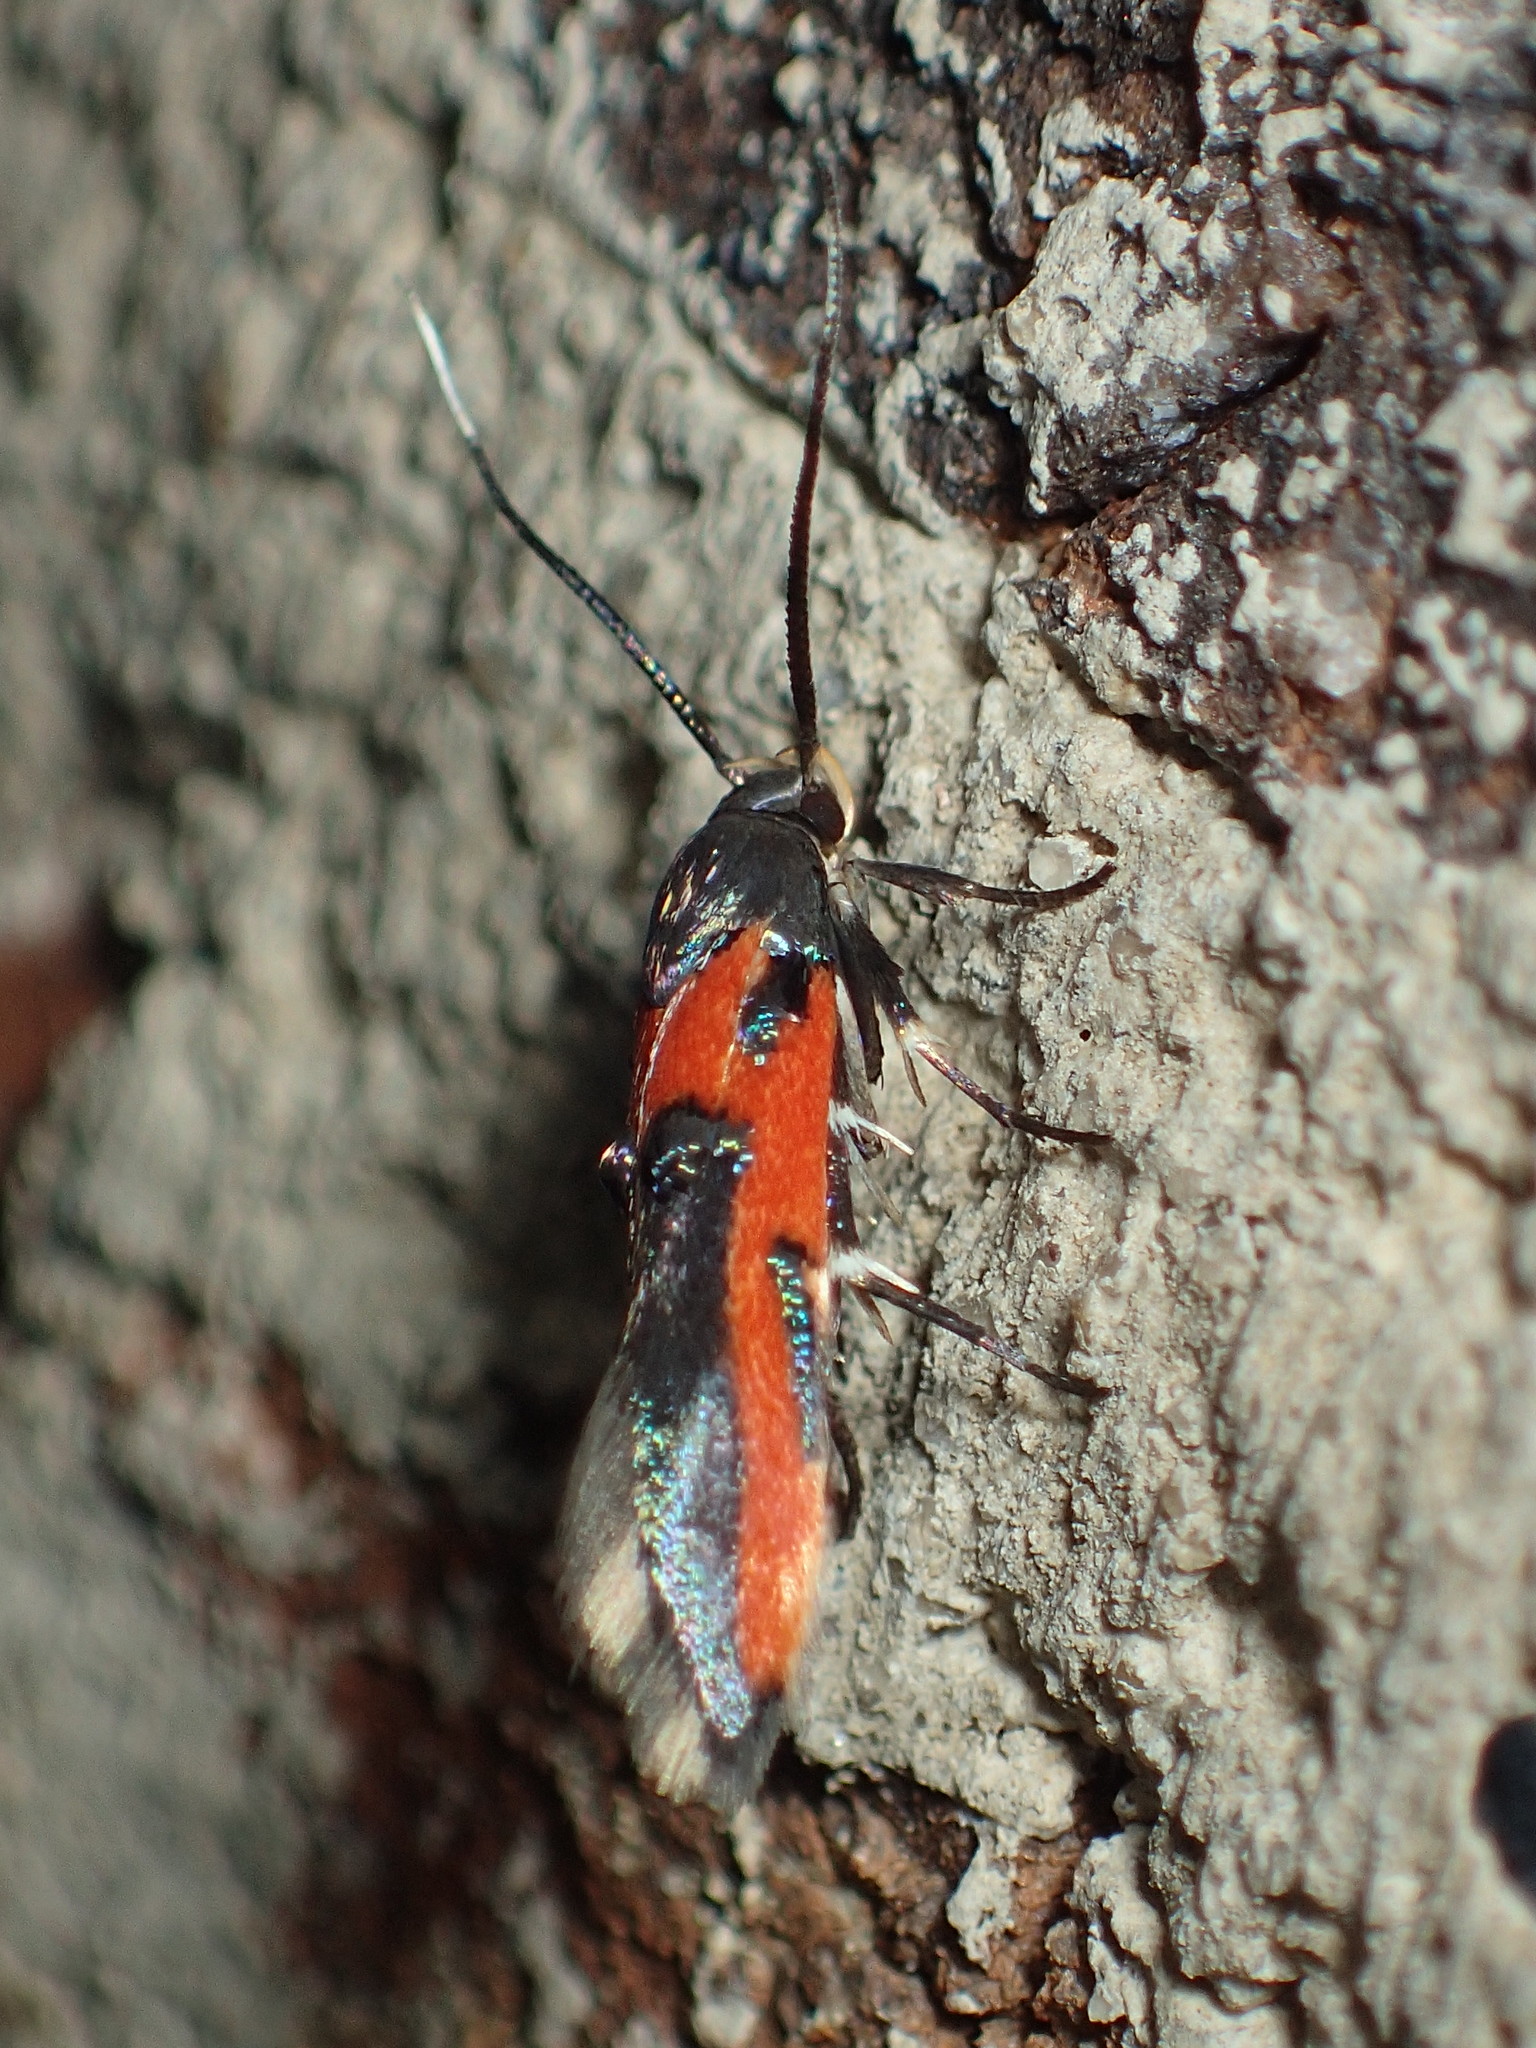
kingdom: Animalia
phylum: Arthropoda
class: Insecta
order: Lepidoptera
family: Cosmopterigidae
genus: Euclemensia
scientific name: Euclemensia bassettella
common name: Kermes scale moth
